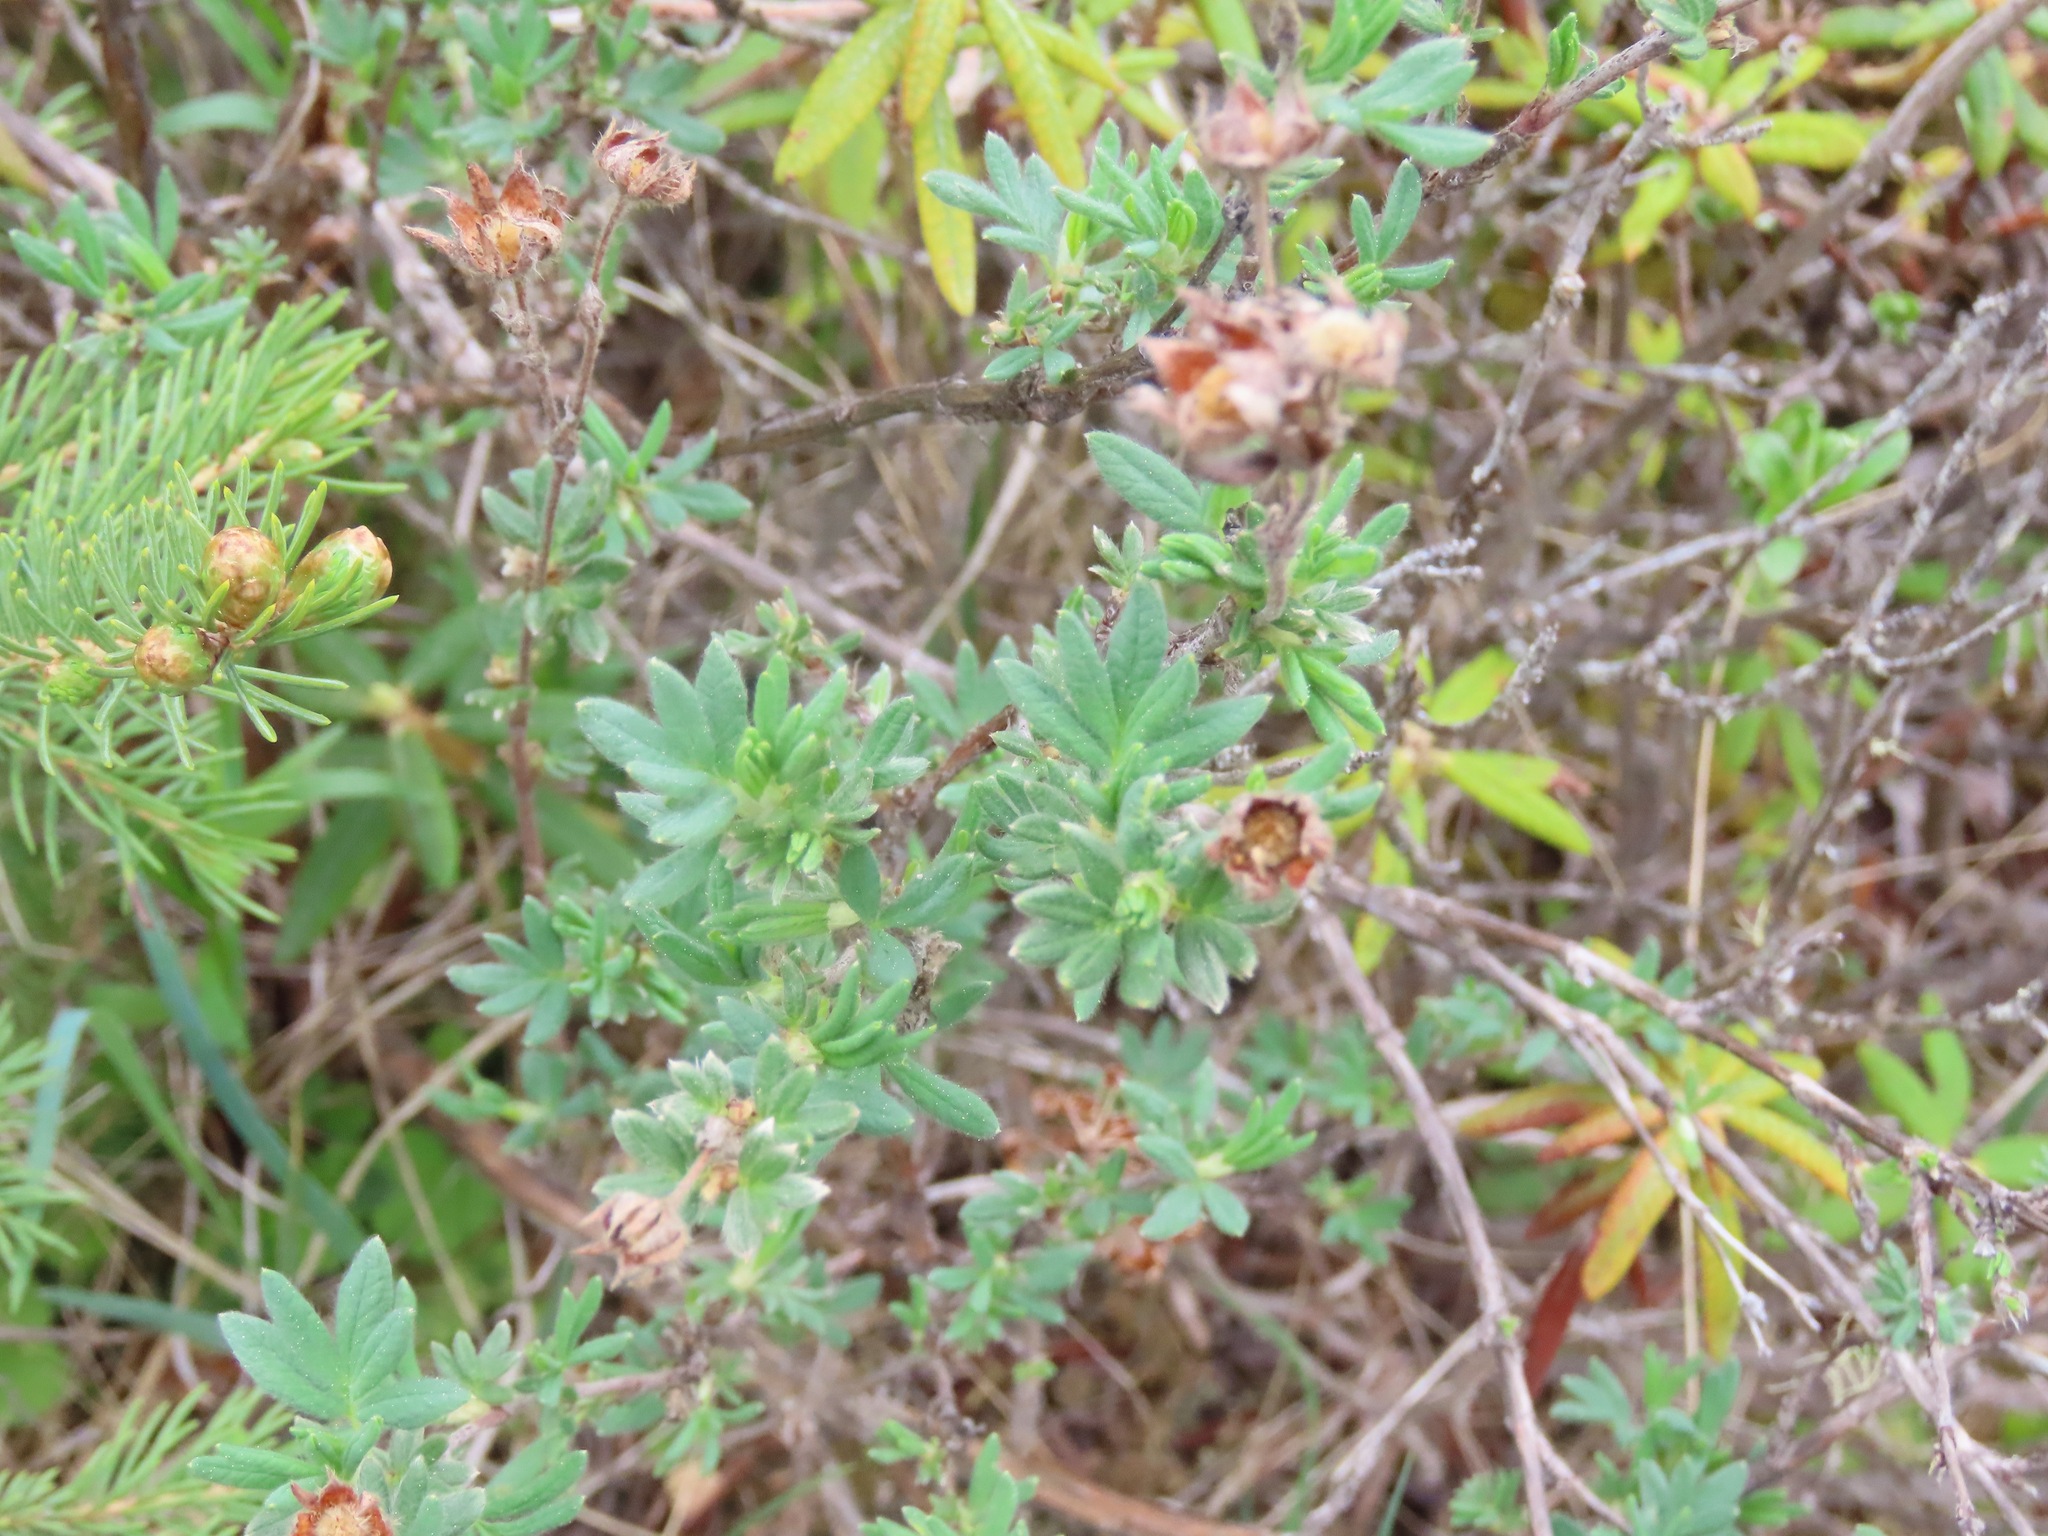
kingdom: Plantae
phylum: Tracheophyta
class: Magnoliopsida
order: Rosales
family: Rosaceae
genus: Dasiphora
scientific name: Dasiphora fruticosa
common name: Shrubby cinquefoil
